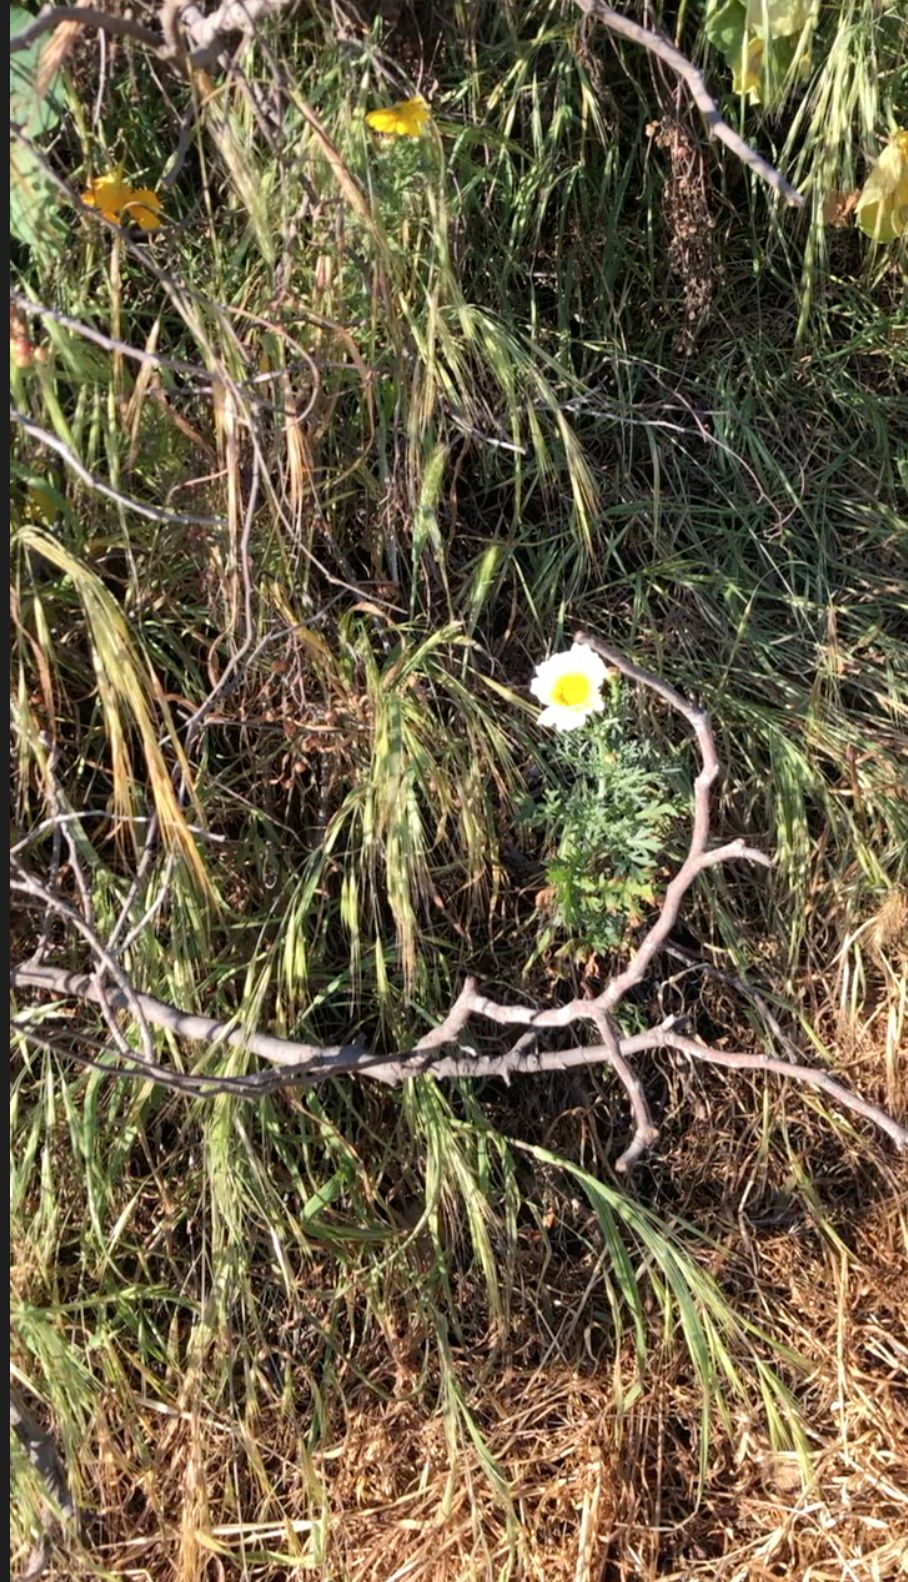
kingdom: Plantae
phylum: Tracheophyta
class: Magnoliopsida
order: Asterales
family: Asteraceae
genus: Glebionis
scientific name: Glebionis coronaria
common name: Crowndaisy
